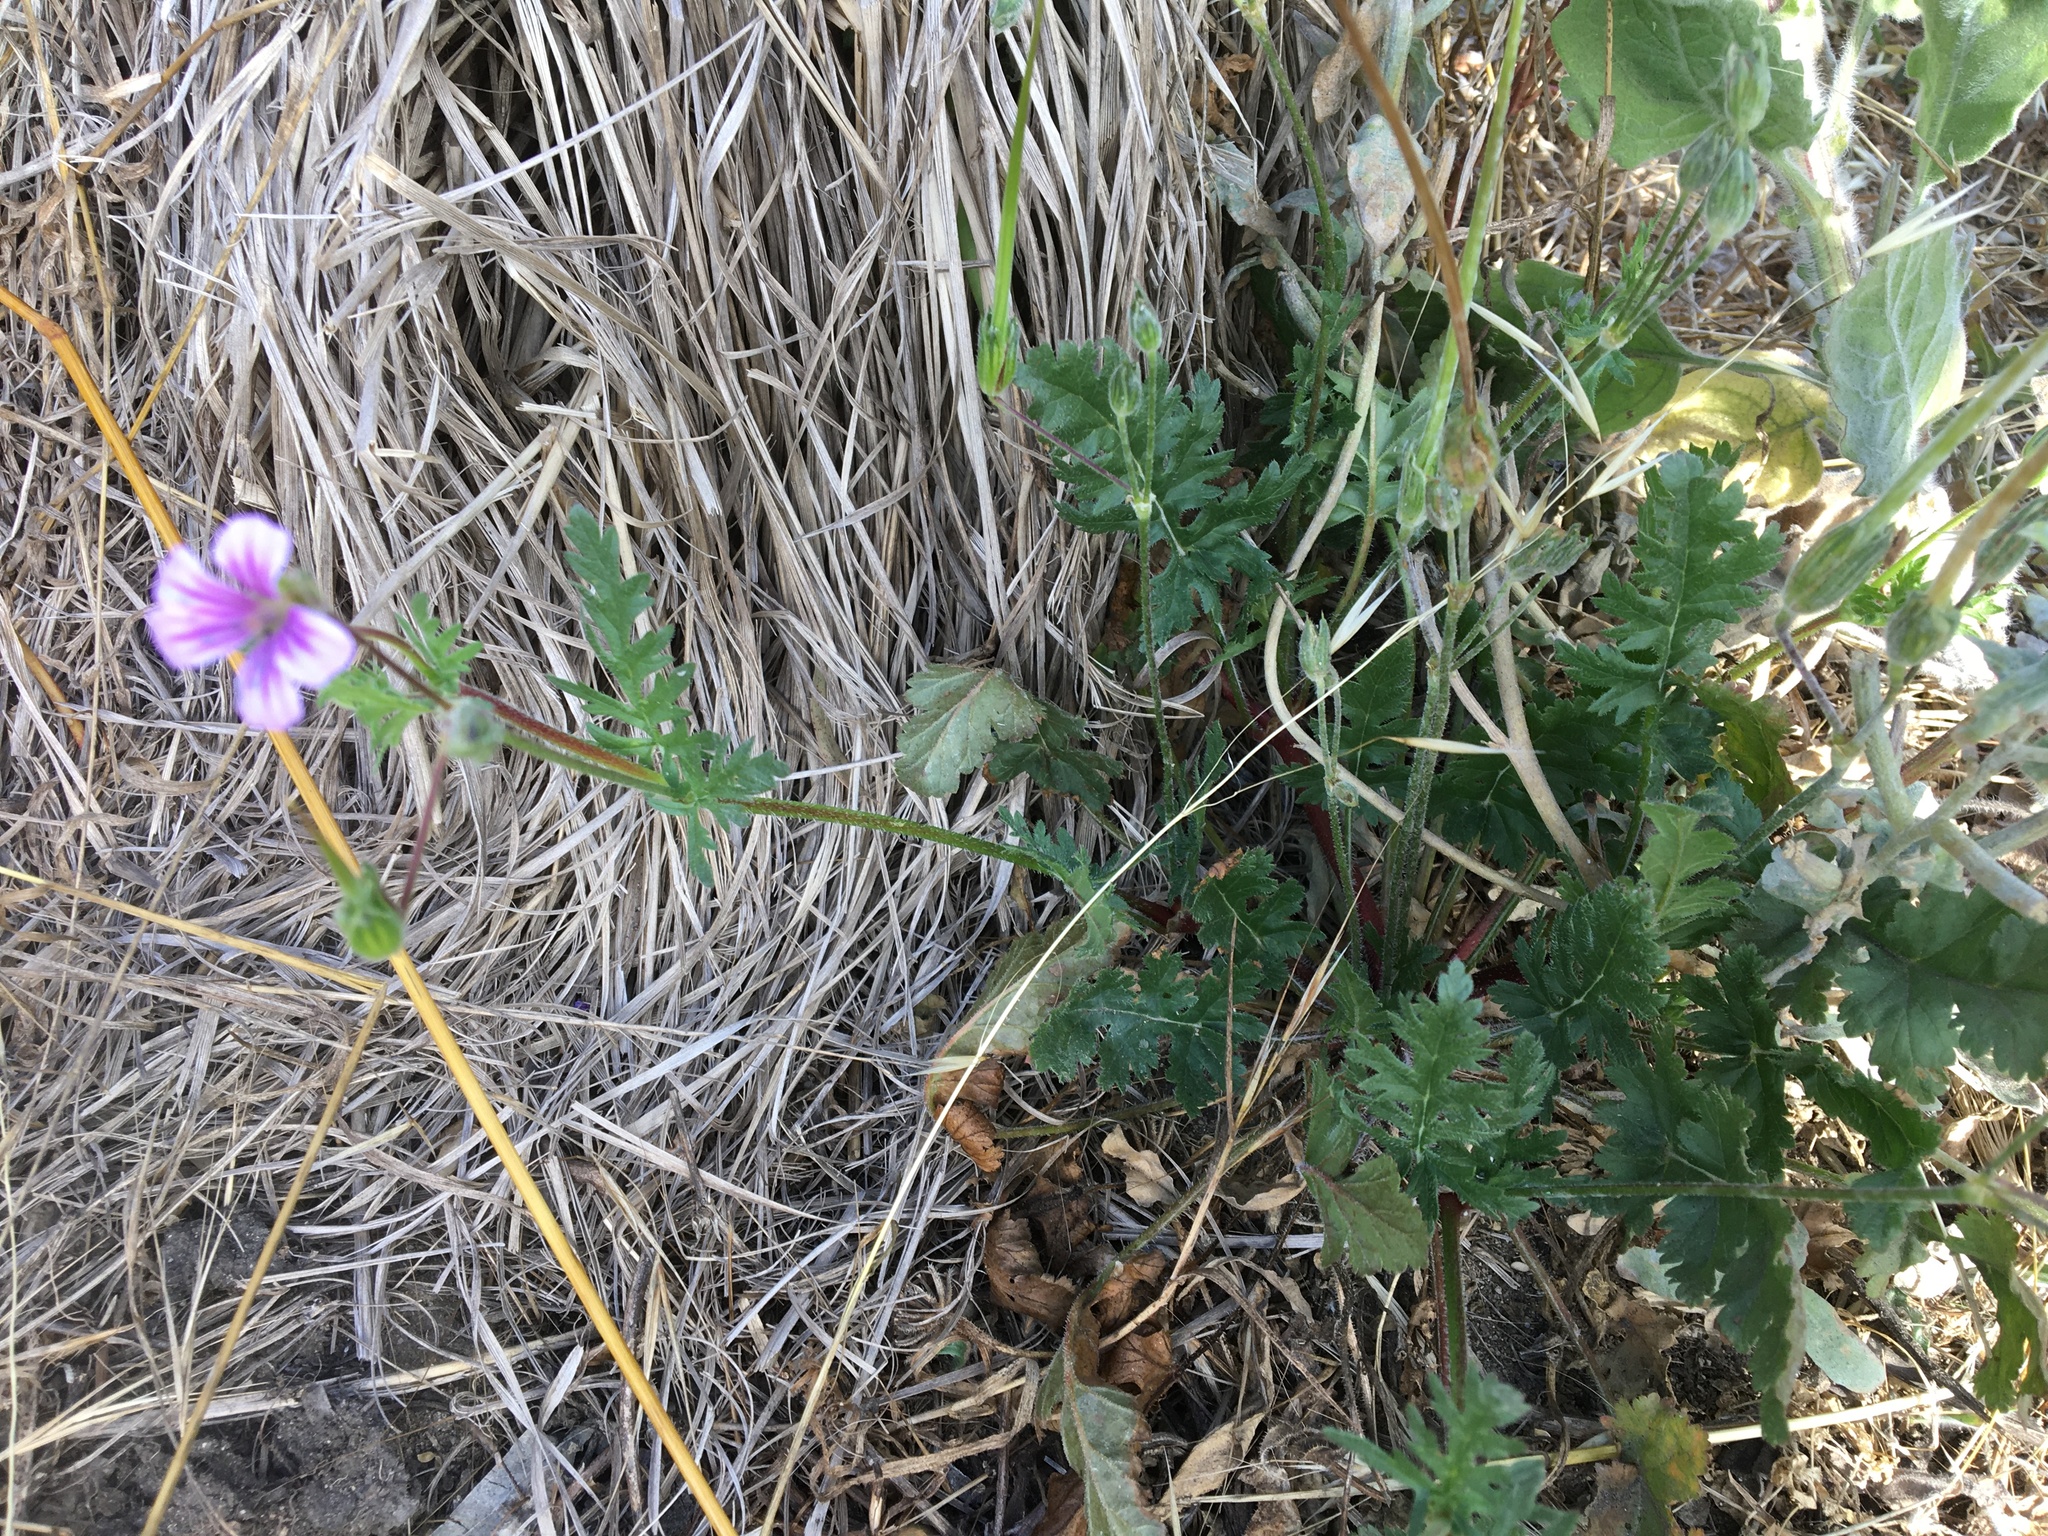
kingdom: Plantae
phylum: Tracheophyta
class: Magnoliopsida
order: Geraniales
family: Geraniaceae
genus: Erodium
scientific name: Erodium botrys
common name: Mediterranean stork's-bill
